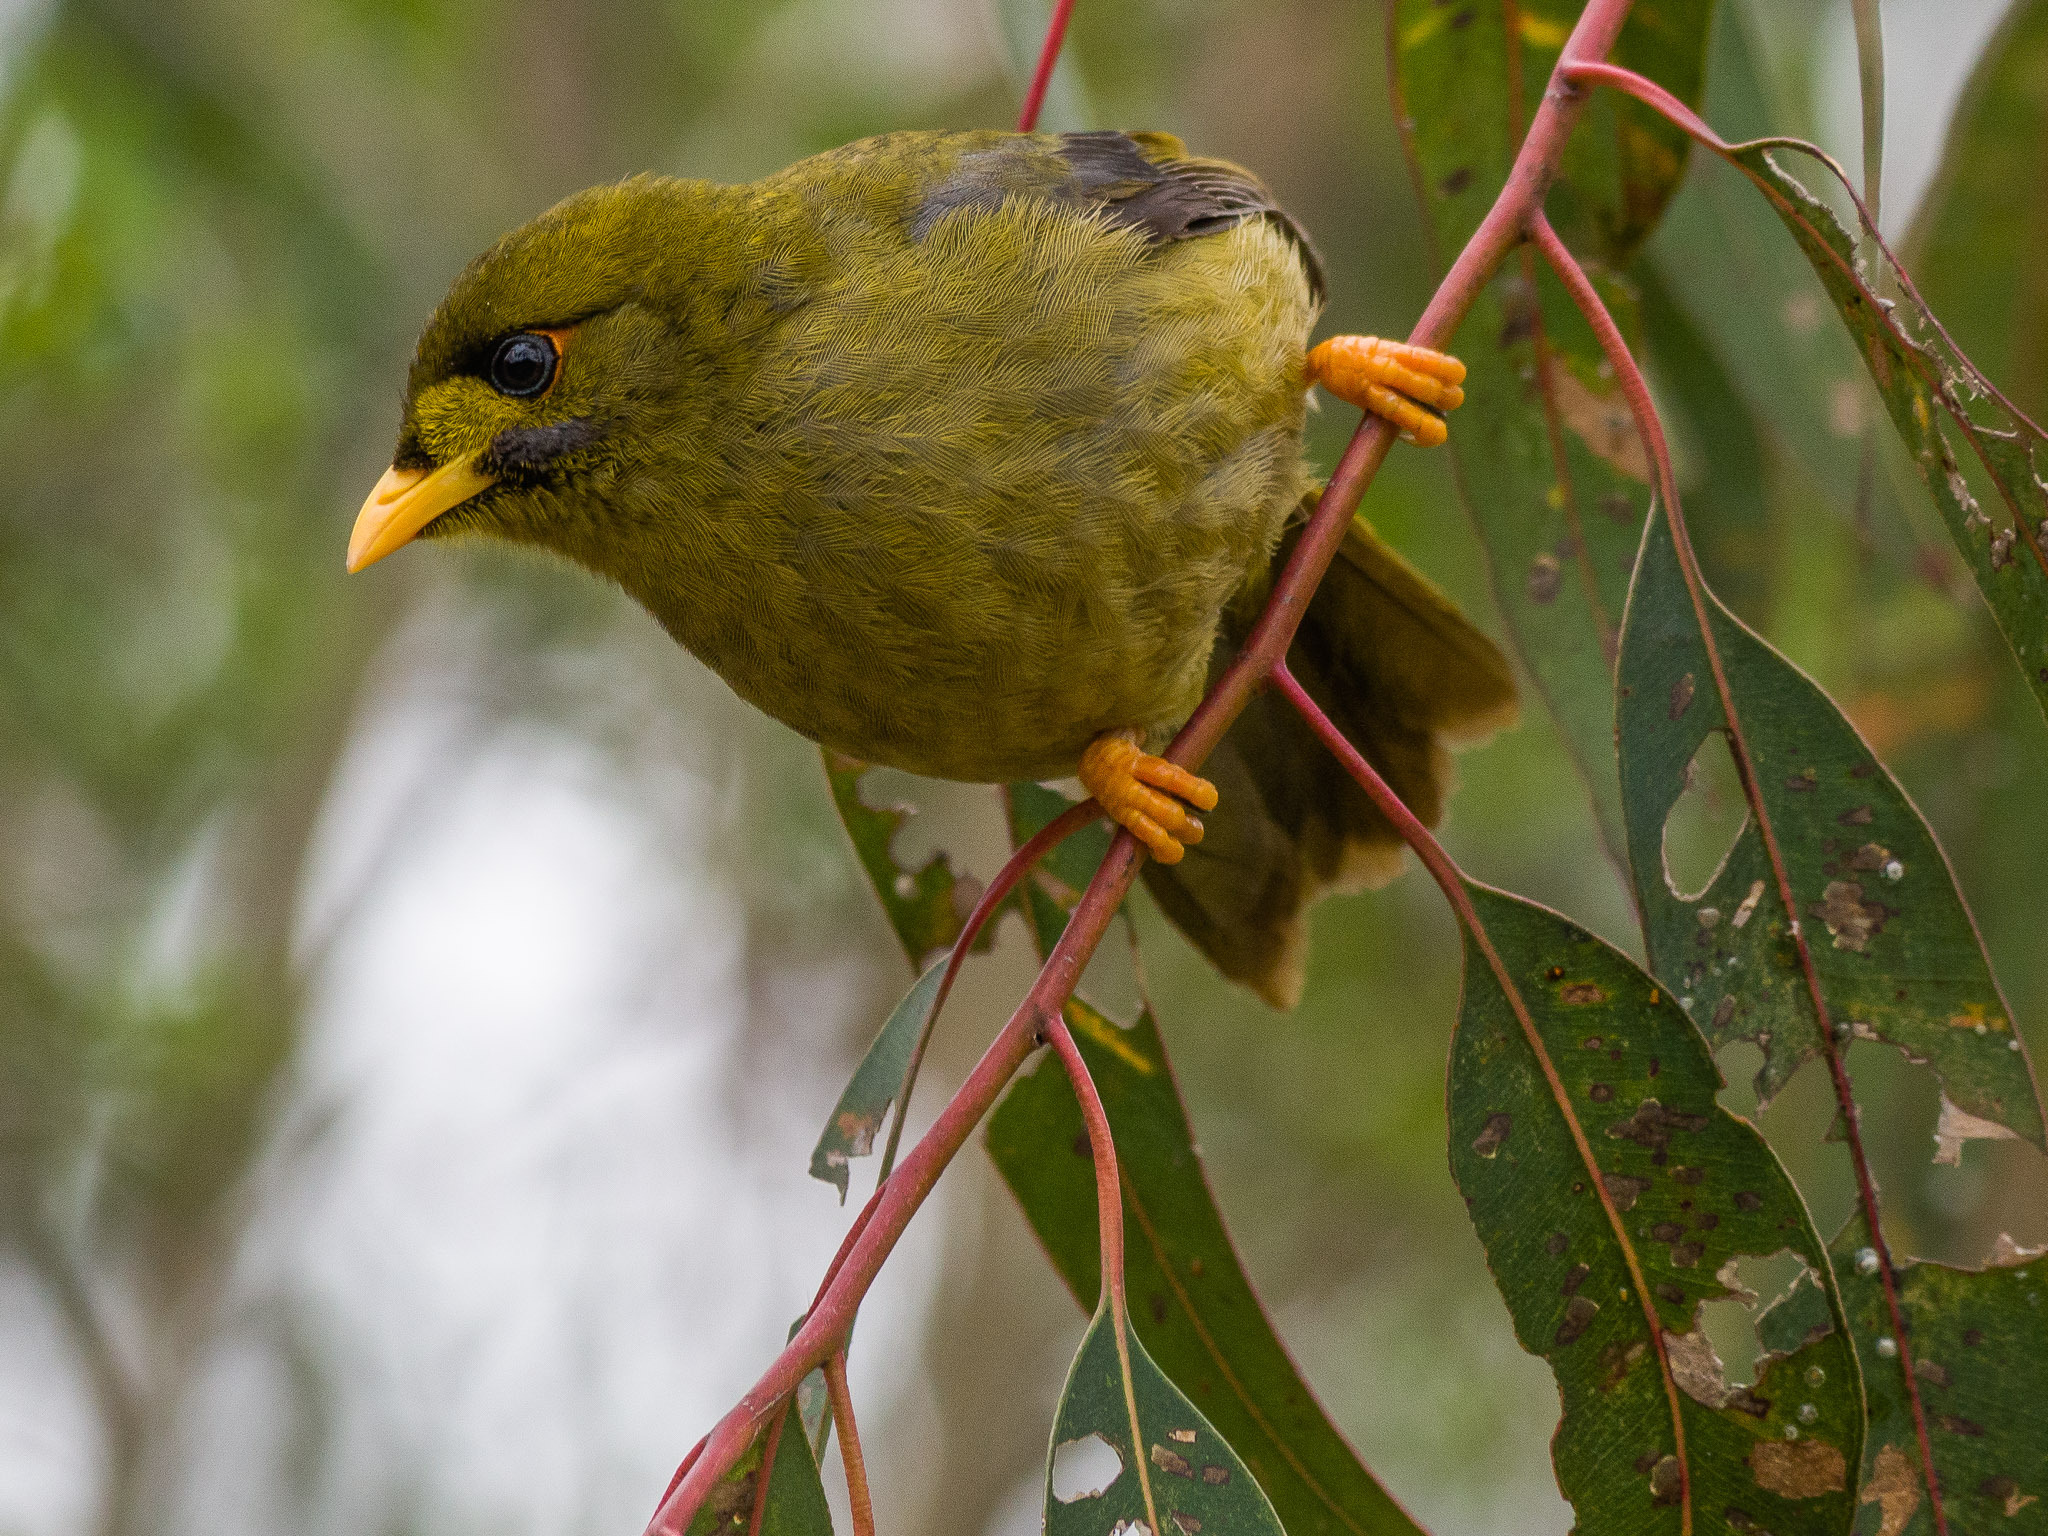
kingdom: Animalia
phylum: Chordata
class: Aves
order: Passeriformes
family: Meliphagidae
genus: Manorina
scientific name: Manorina melanophrys
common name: Bell miner
